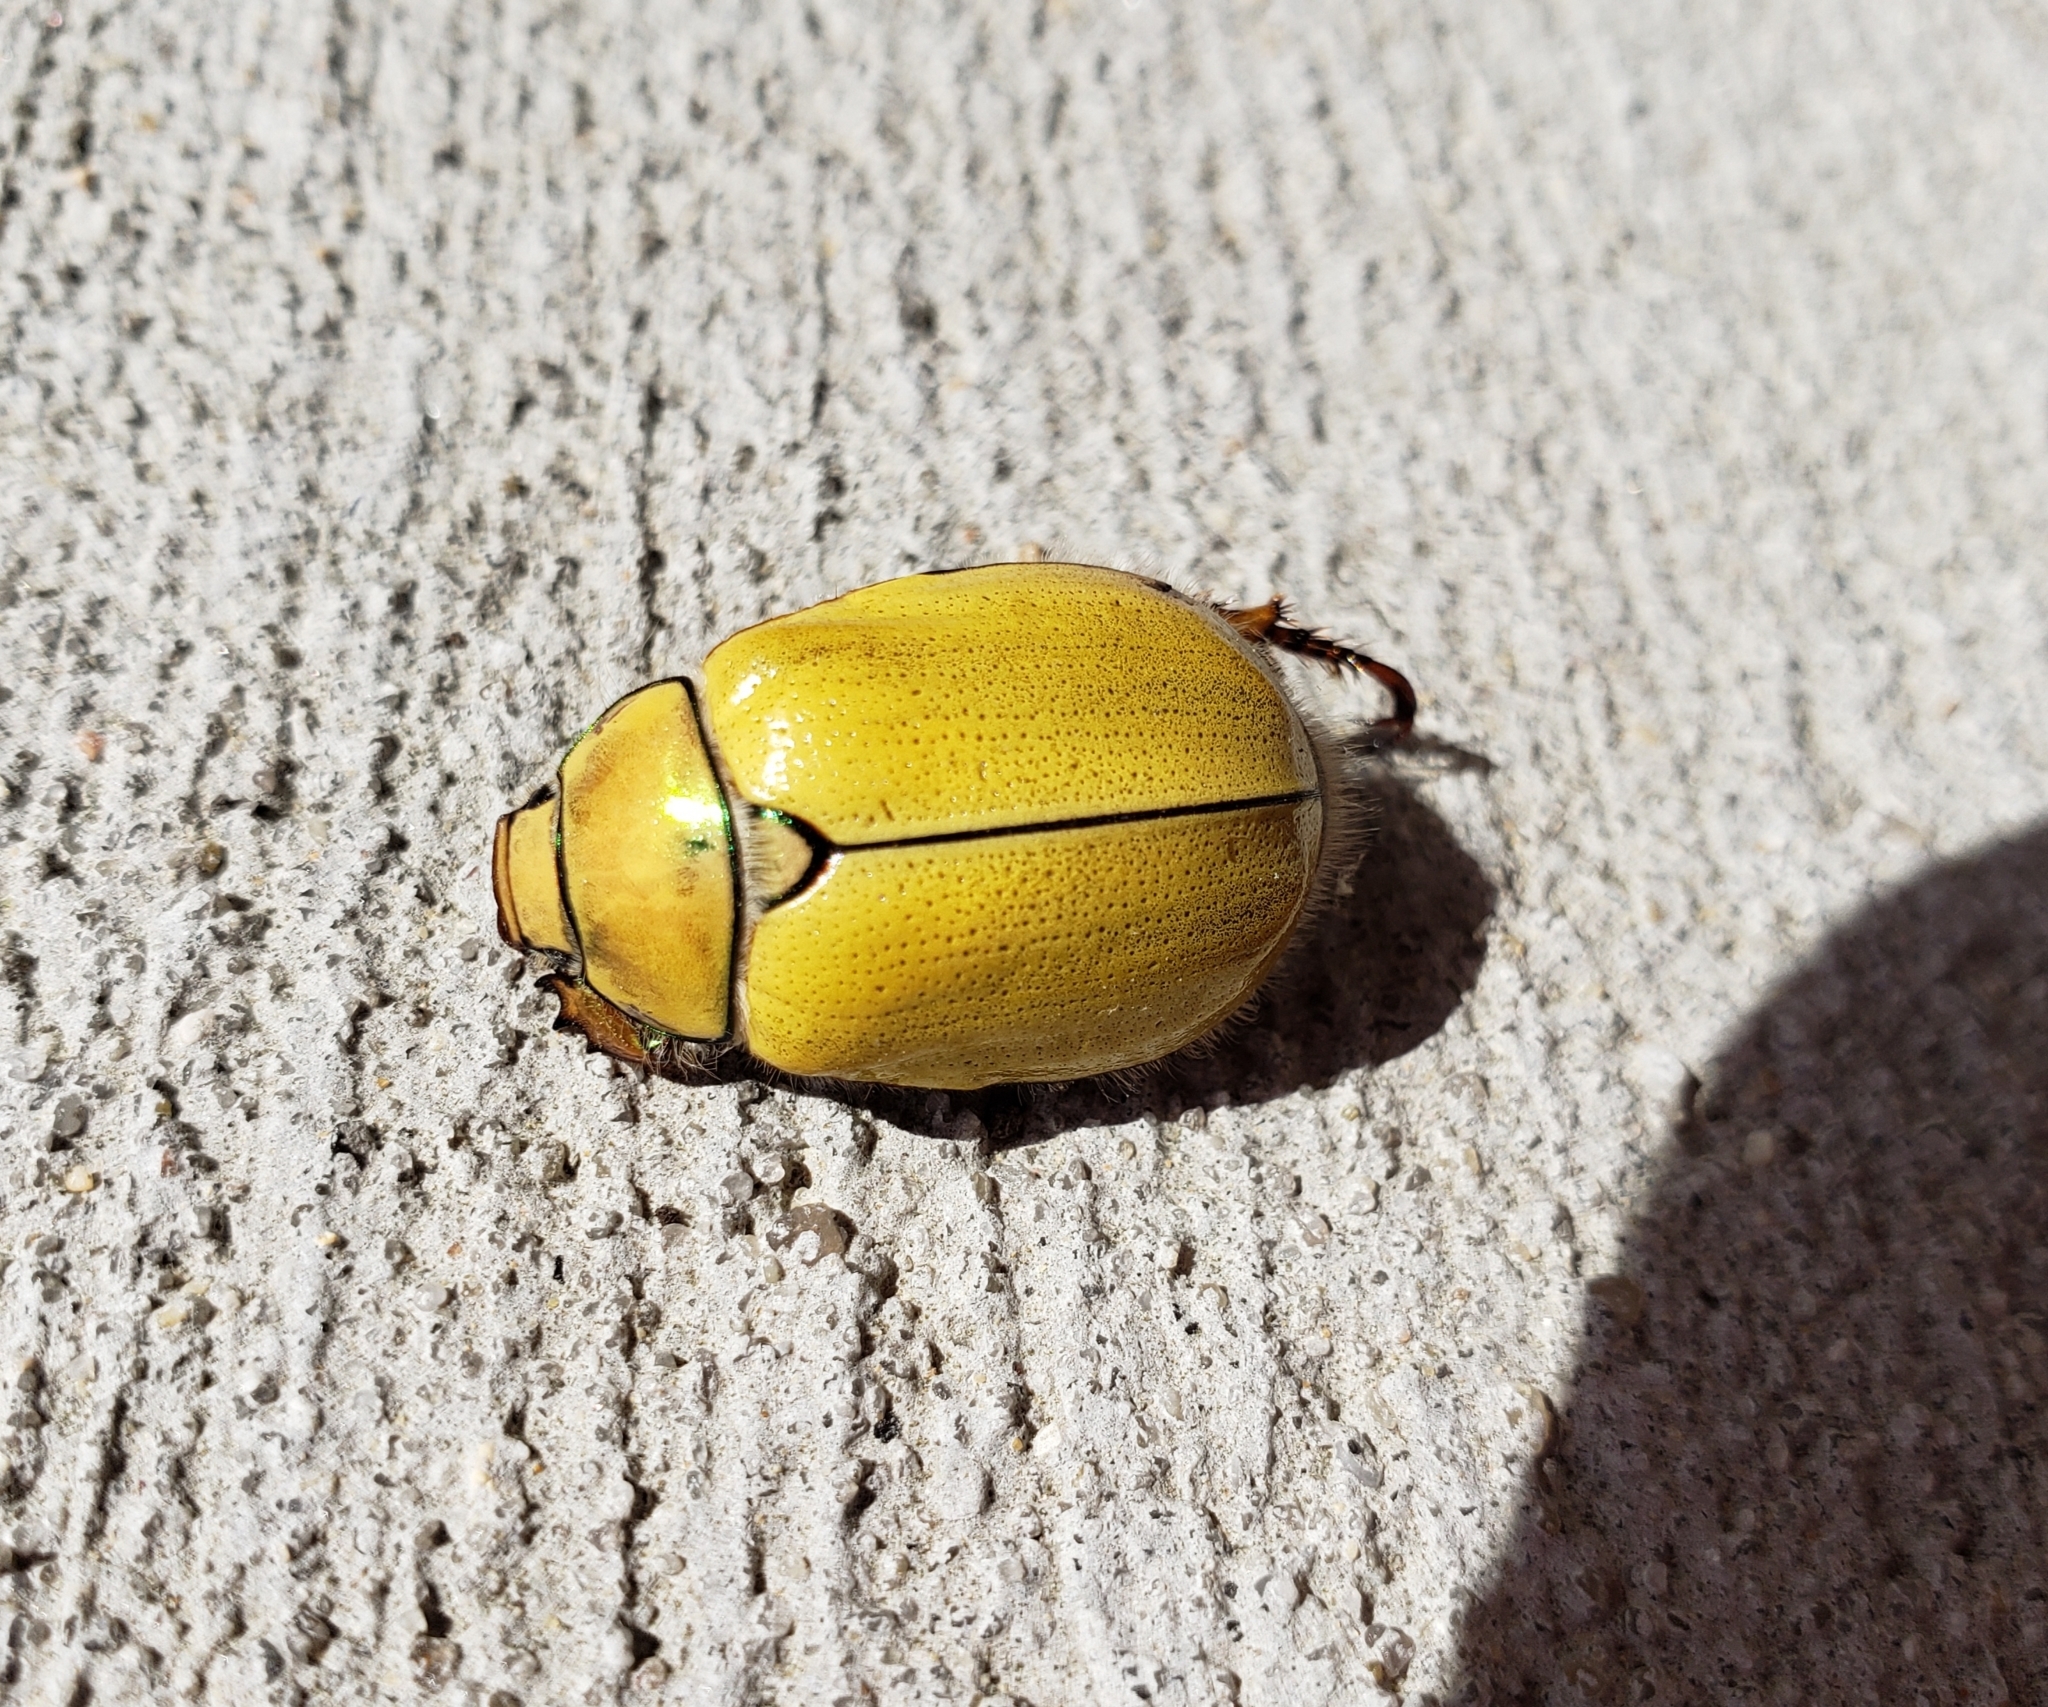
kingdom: Animalia
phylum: Arthropoda
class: Insecta
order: Coleoptera
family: Scarabaeidae
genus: Cotalpa
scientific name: Cotalpa lanigera
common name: Goldsmith beetle
